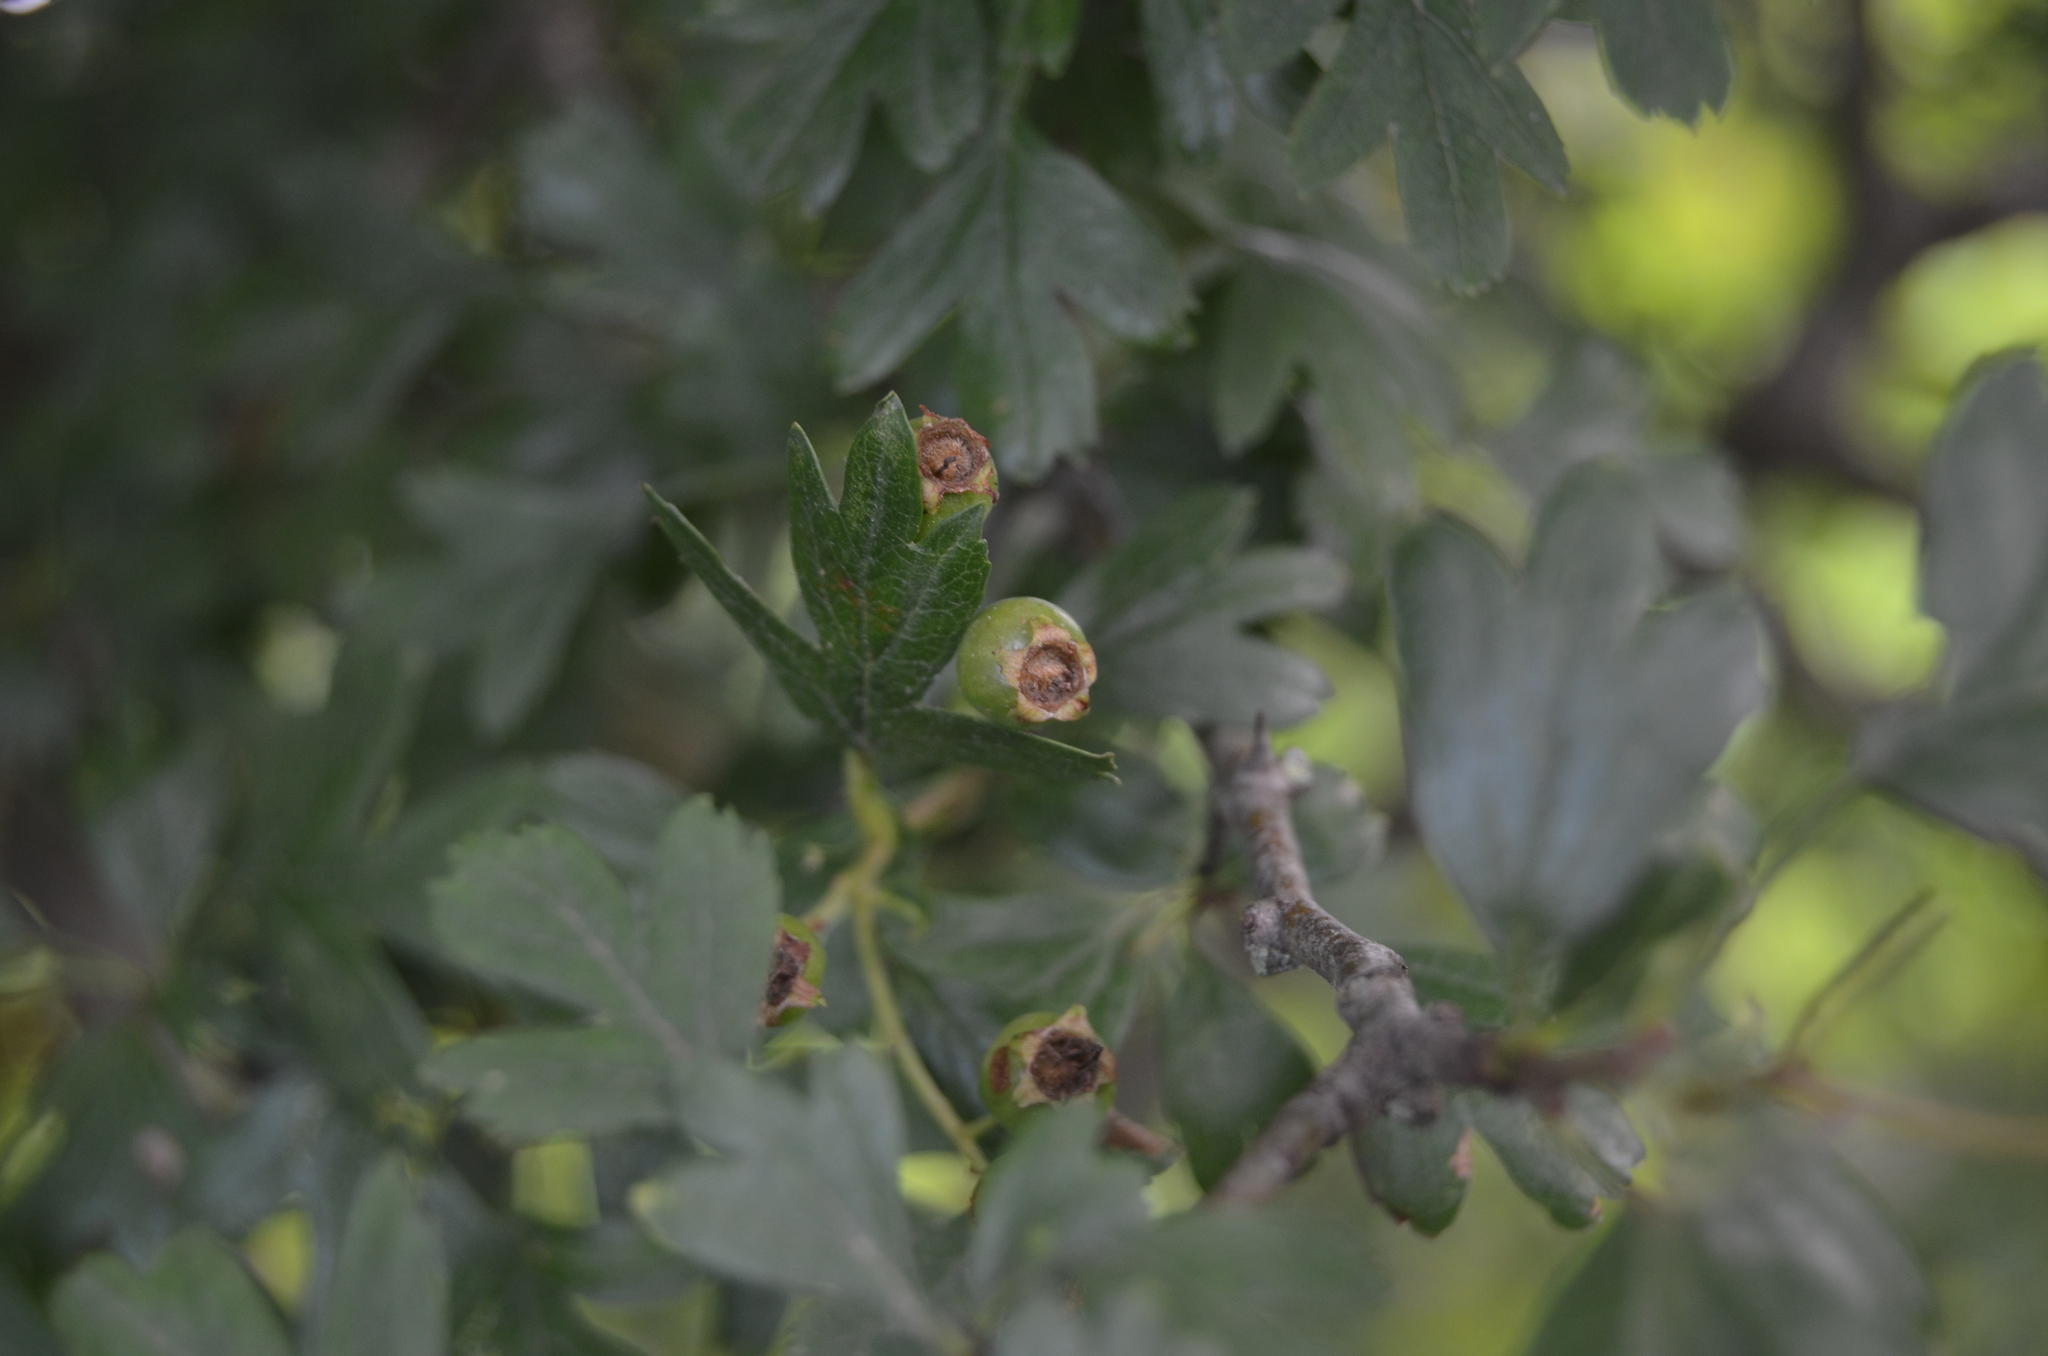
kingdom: Plantae
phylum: Tracheophyta
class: Magnoliopsida
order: Rosales
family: Rosaceae
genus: Crataegus
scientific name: Crataegus monogyna
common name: Hawthorn
